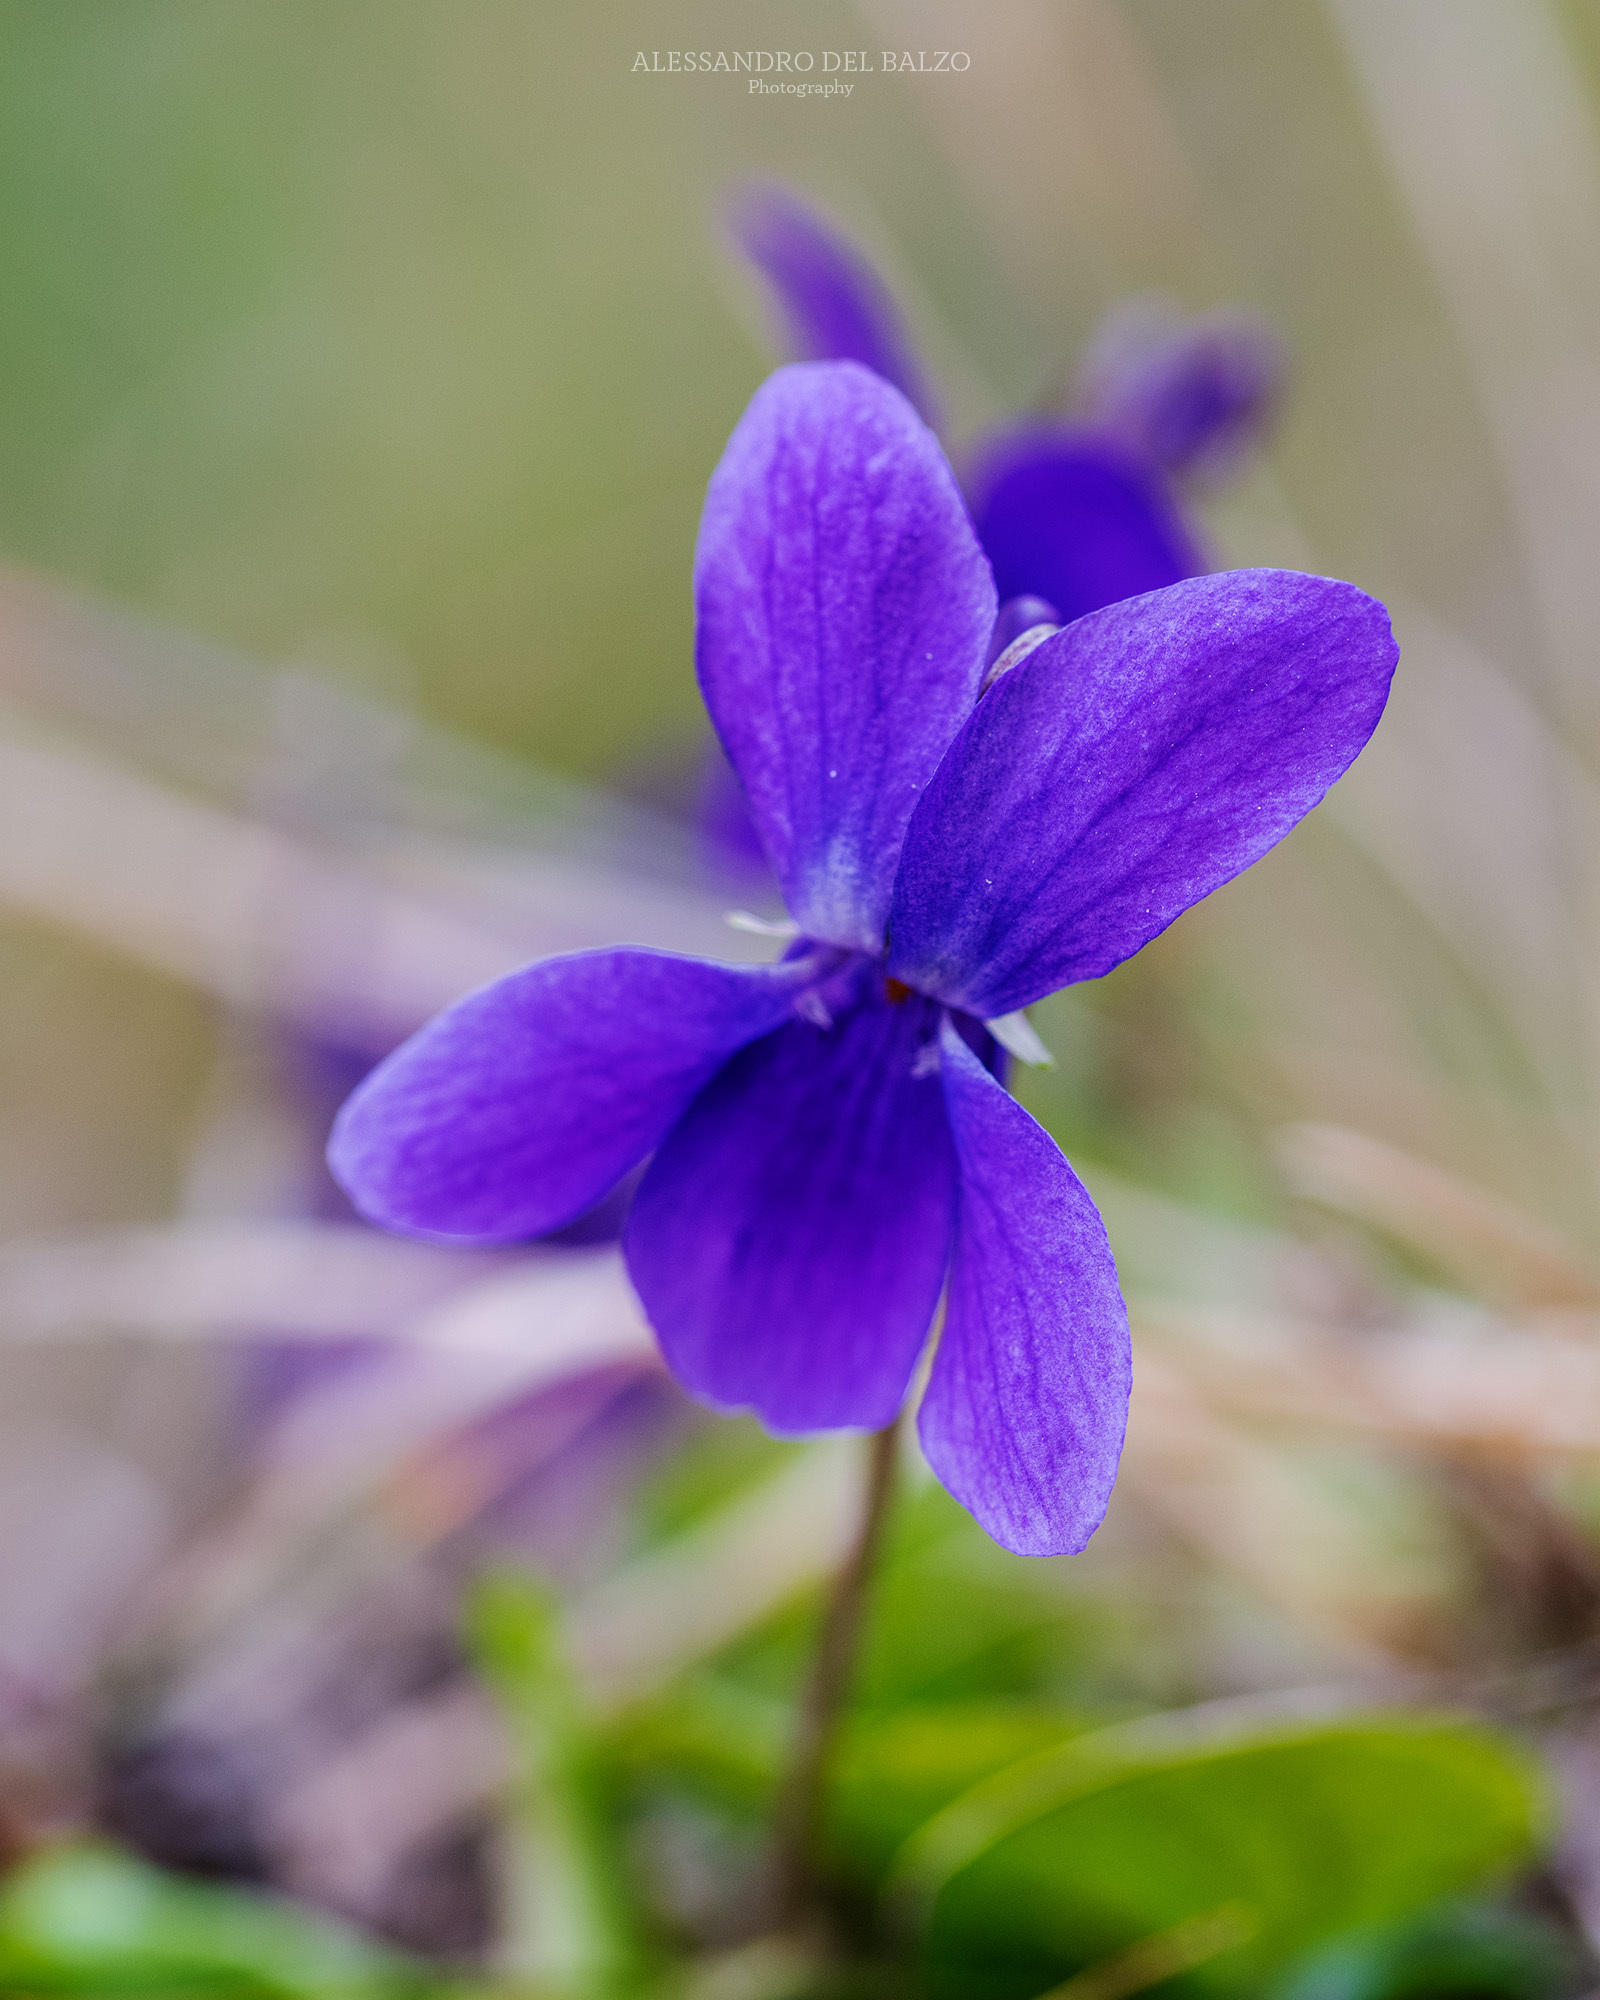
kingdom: Plantae
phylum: Tracheophyta
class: Magnoliopsida
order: Malpighiales
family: Violaceae
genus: Viola
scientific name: Viola odorata
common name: Sweet violet
